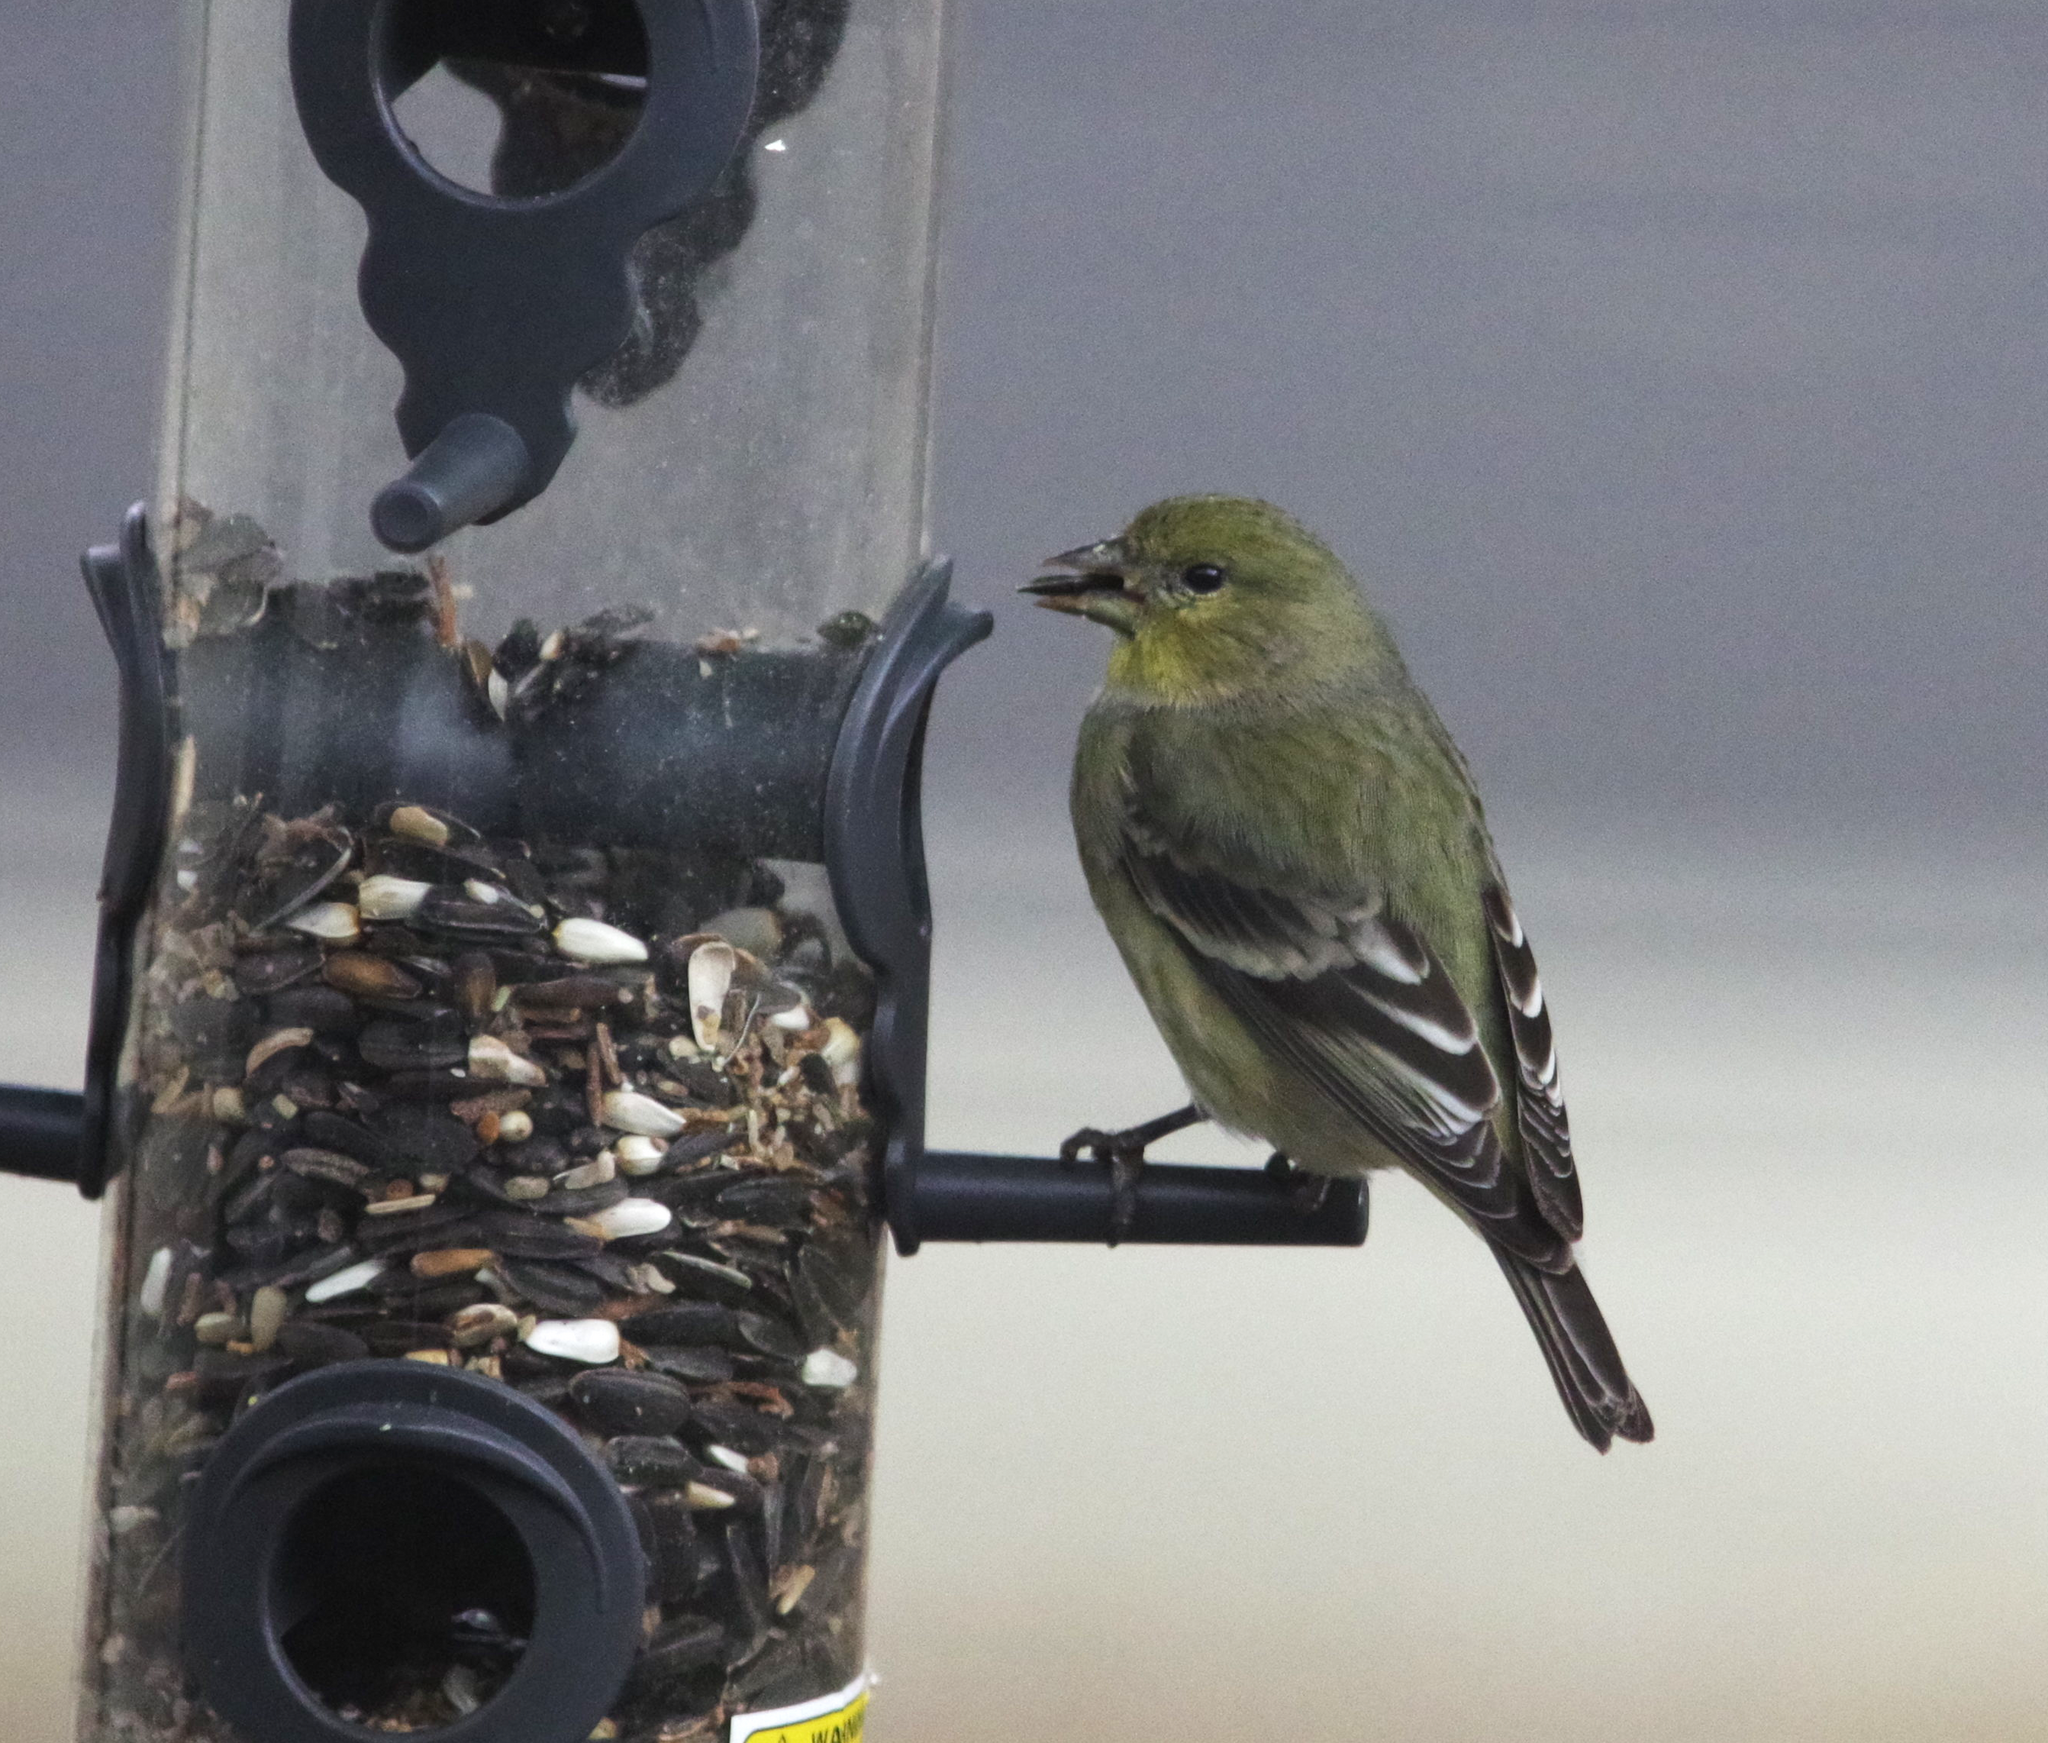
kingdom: Animalia
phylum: Chordata
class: Aves
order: Passeriformes
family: Fringillidae
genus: Spinus
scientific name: Spinus psaltria
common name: Lesser goldfinch
